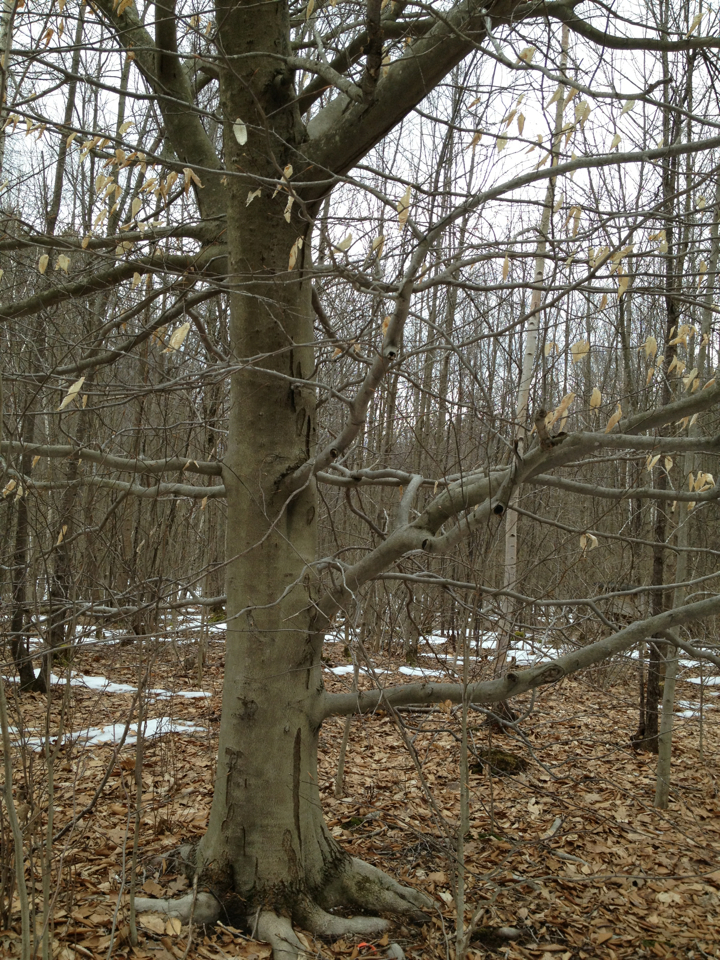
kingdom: Plantae
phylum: Tracheophyta
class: Magnoliopsida
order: Fagales
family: Fagaceae
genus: Fagus
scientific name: Fagus grandifolia
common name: American beech
